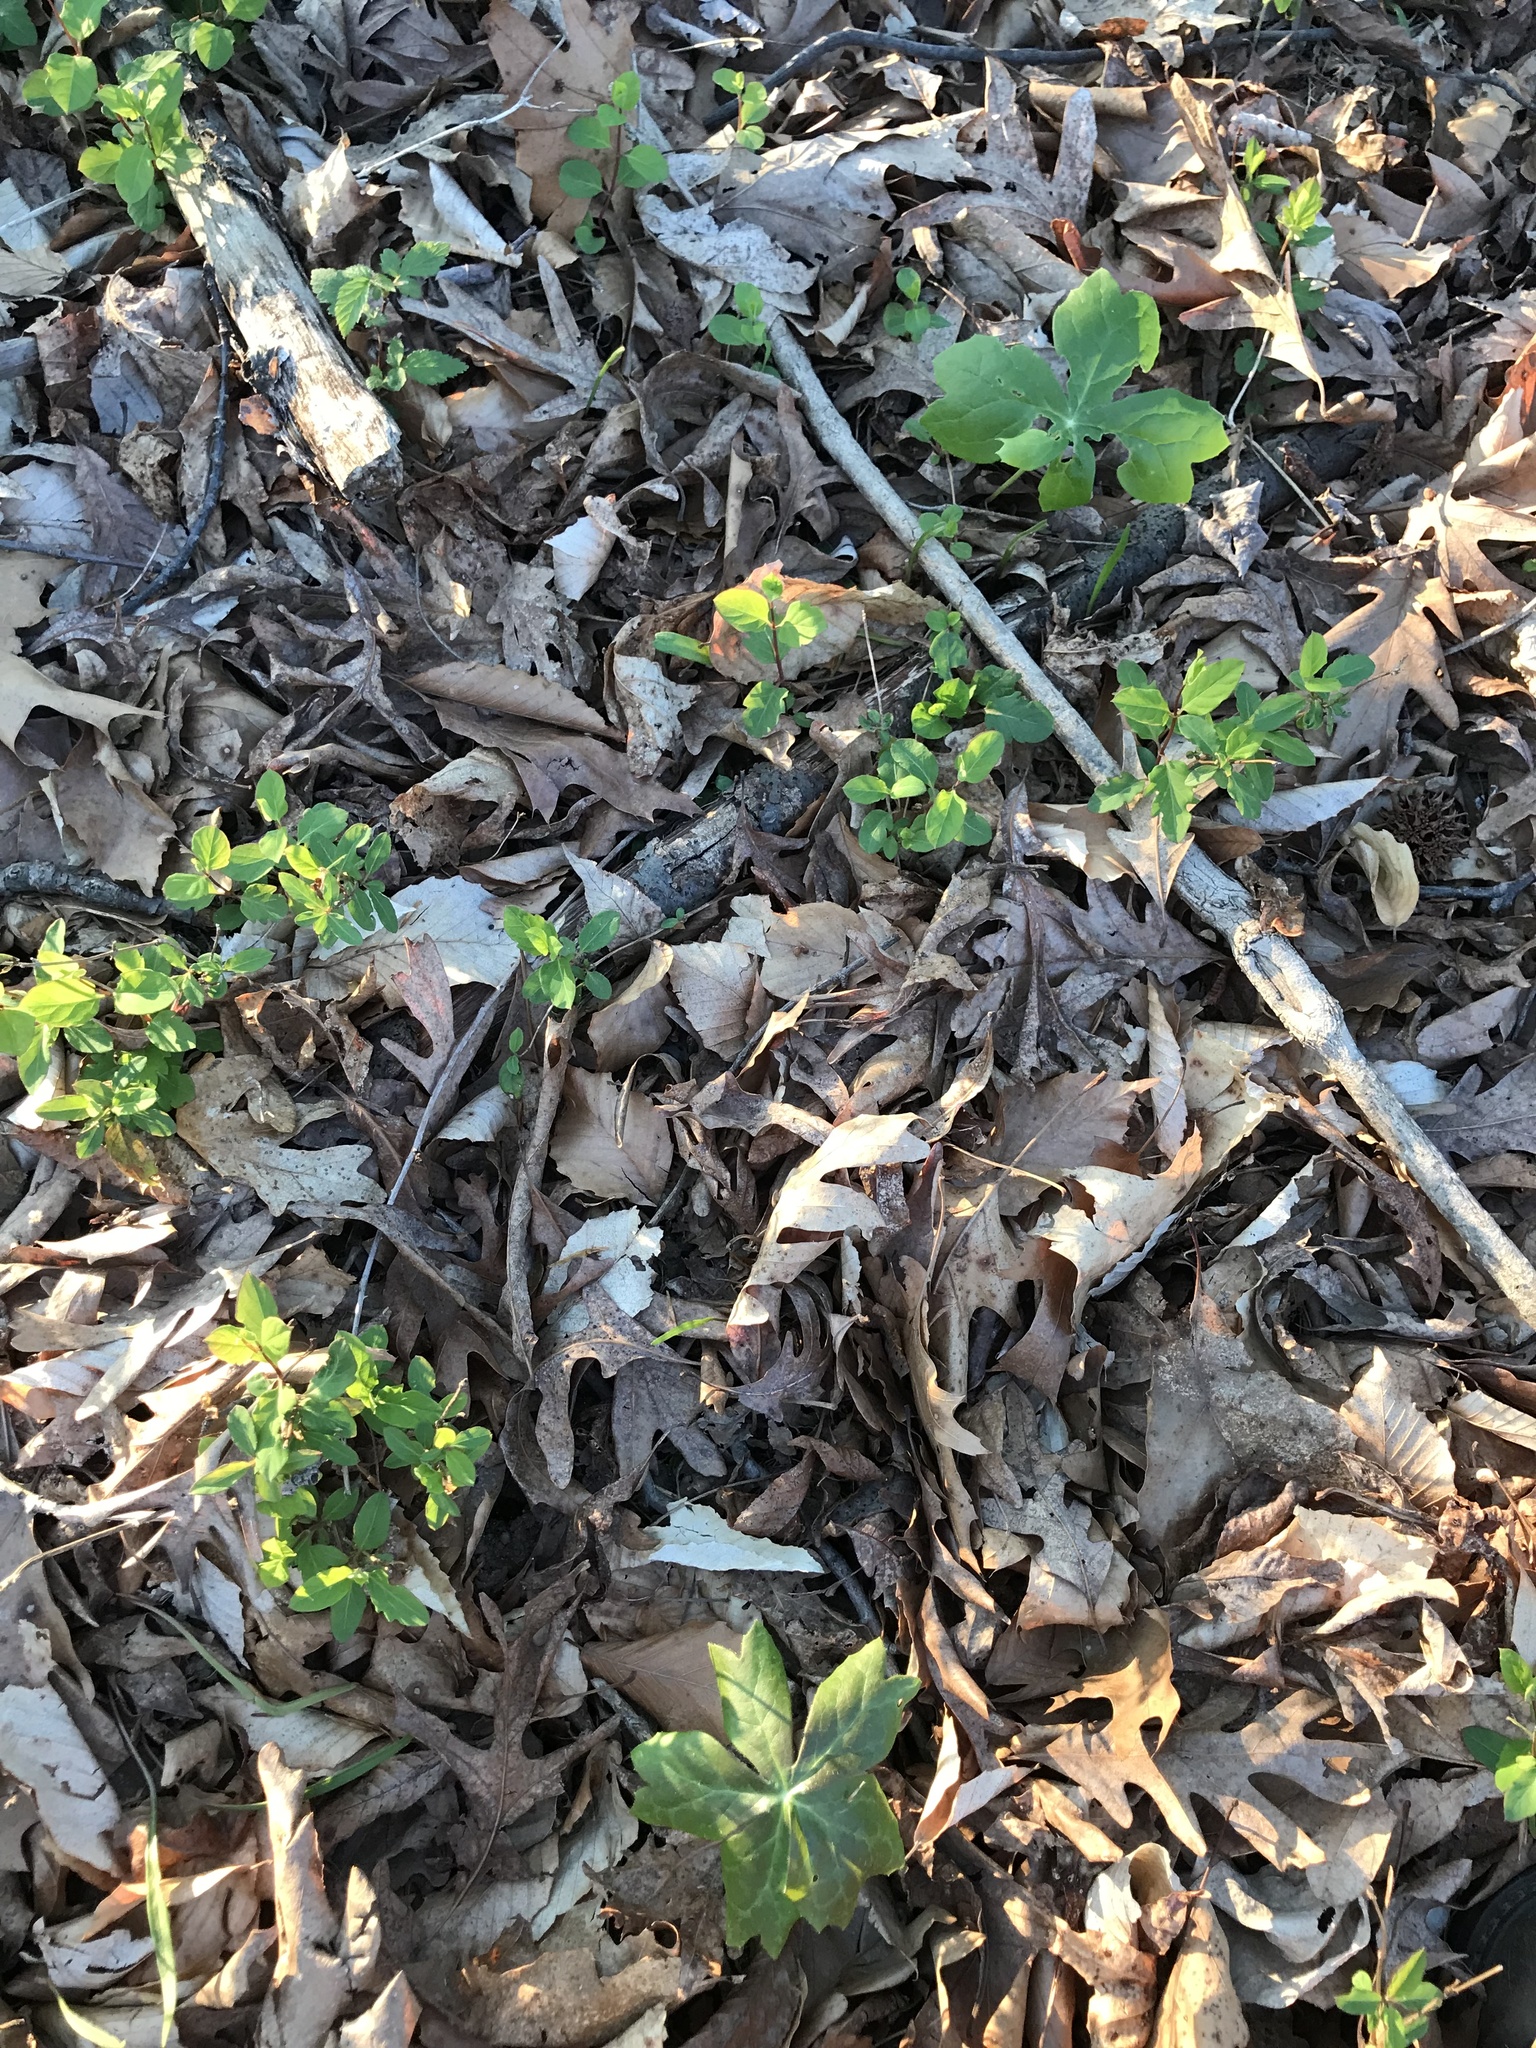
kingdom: Plantae
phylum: Tracheophyta
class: Magnoliopsida
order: Ranunculales
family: Berberidaceae
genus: Podophyllum
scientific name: Podophyllum peltatum
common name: Wild mandrake
